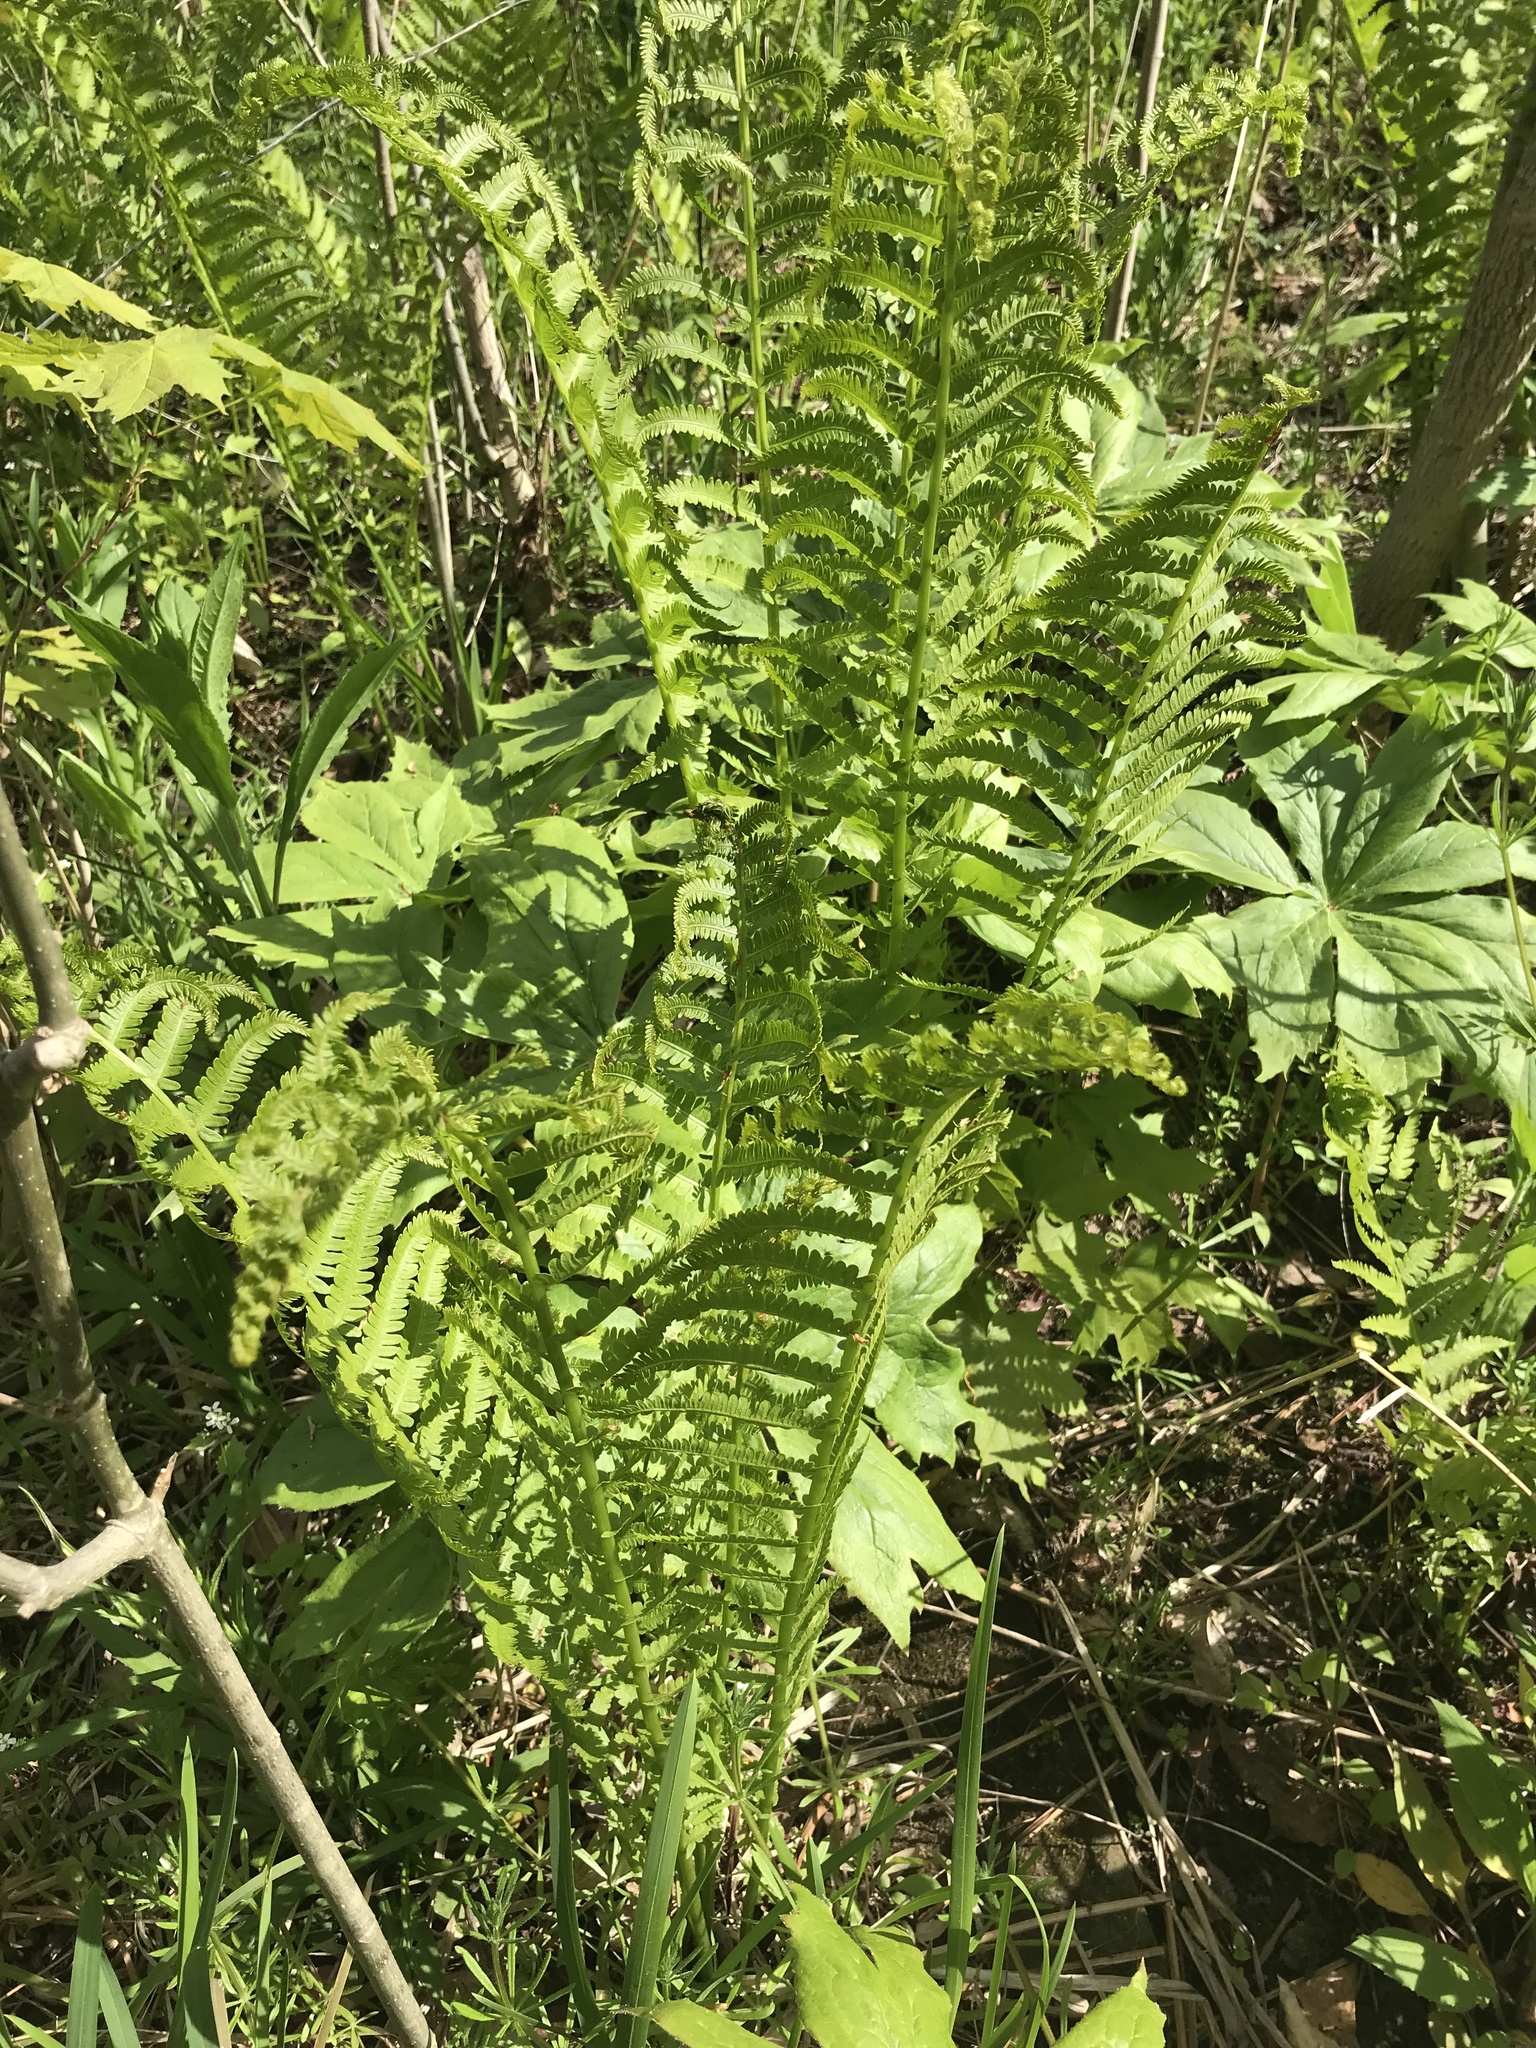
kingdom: Plantae
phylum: Tracheophyta
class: Polypodiopsida
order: Polypodiales
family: Onocleaceae
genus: Matteuccia
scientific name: Matteuccia struthiopteris
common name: Ostrich fern
